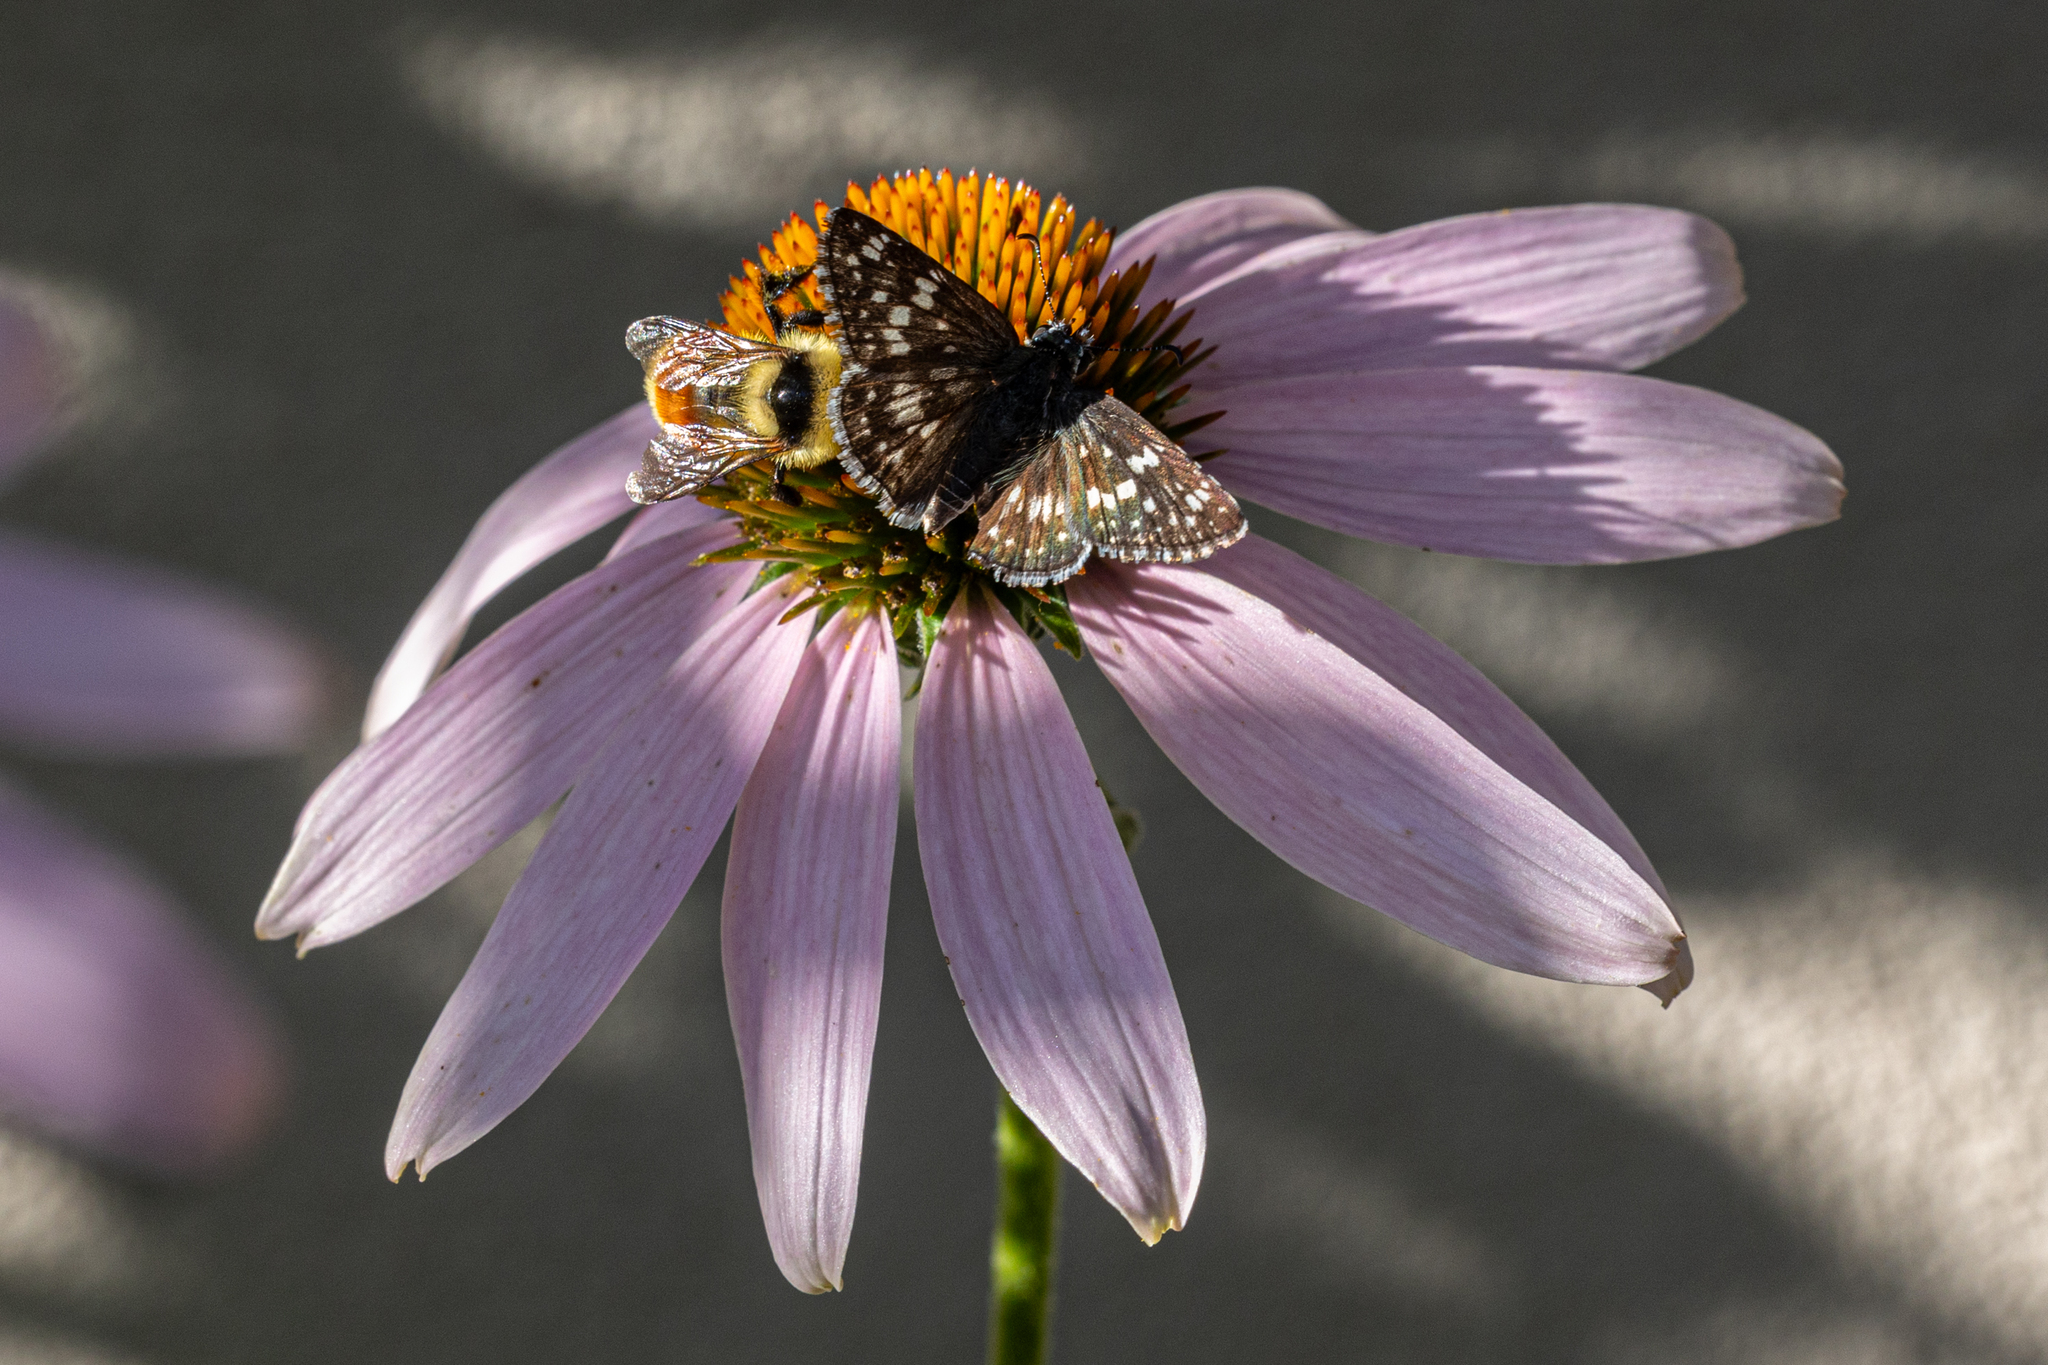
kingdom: Animalia
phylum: Arthropoda
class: Insecta
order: Lepidoptera
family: Hesperiidae
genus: Burnsius
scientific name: Burnsius
